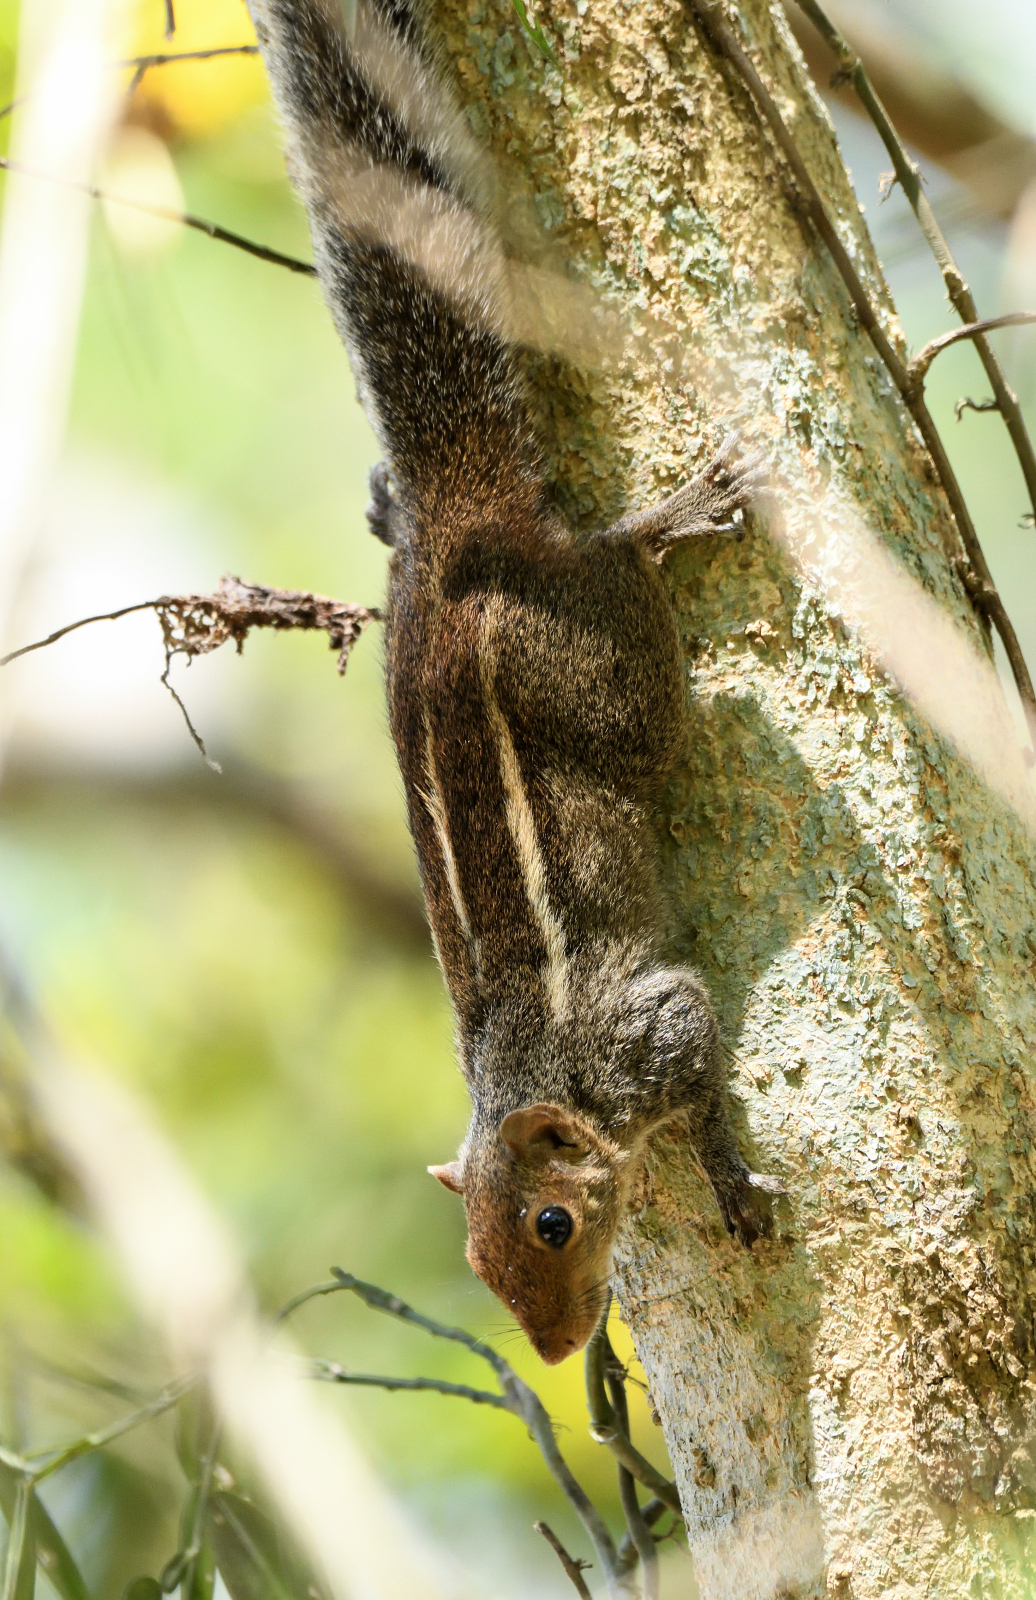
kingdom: Animalia
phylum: Chordata
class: Mammalia
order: Rodentia
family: Sciuridae
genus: Funambulus
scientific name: Funambulus tristriatus
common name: Jungle palm squirrel
